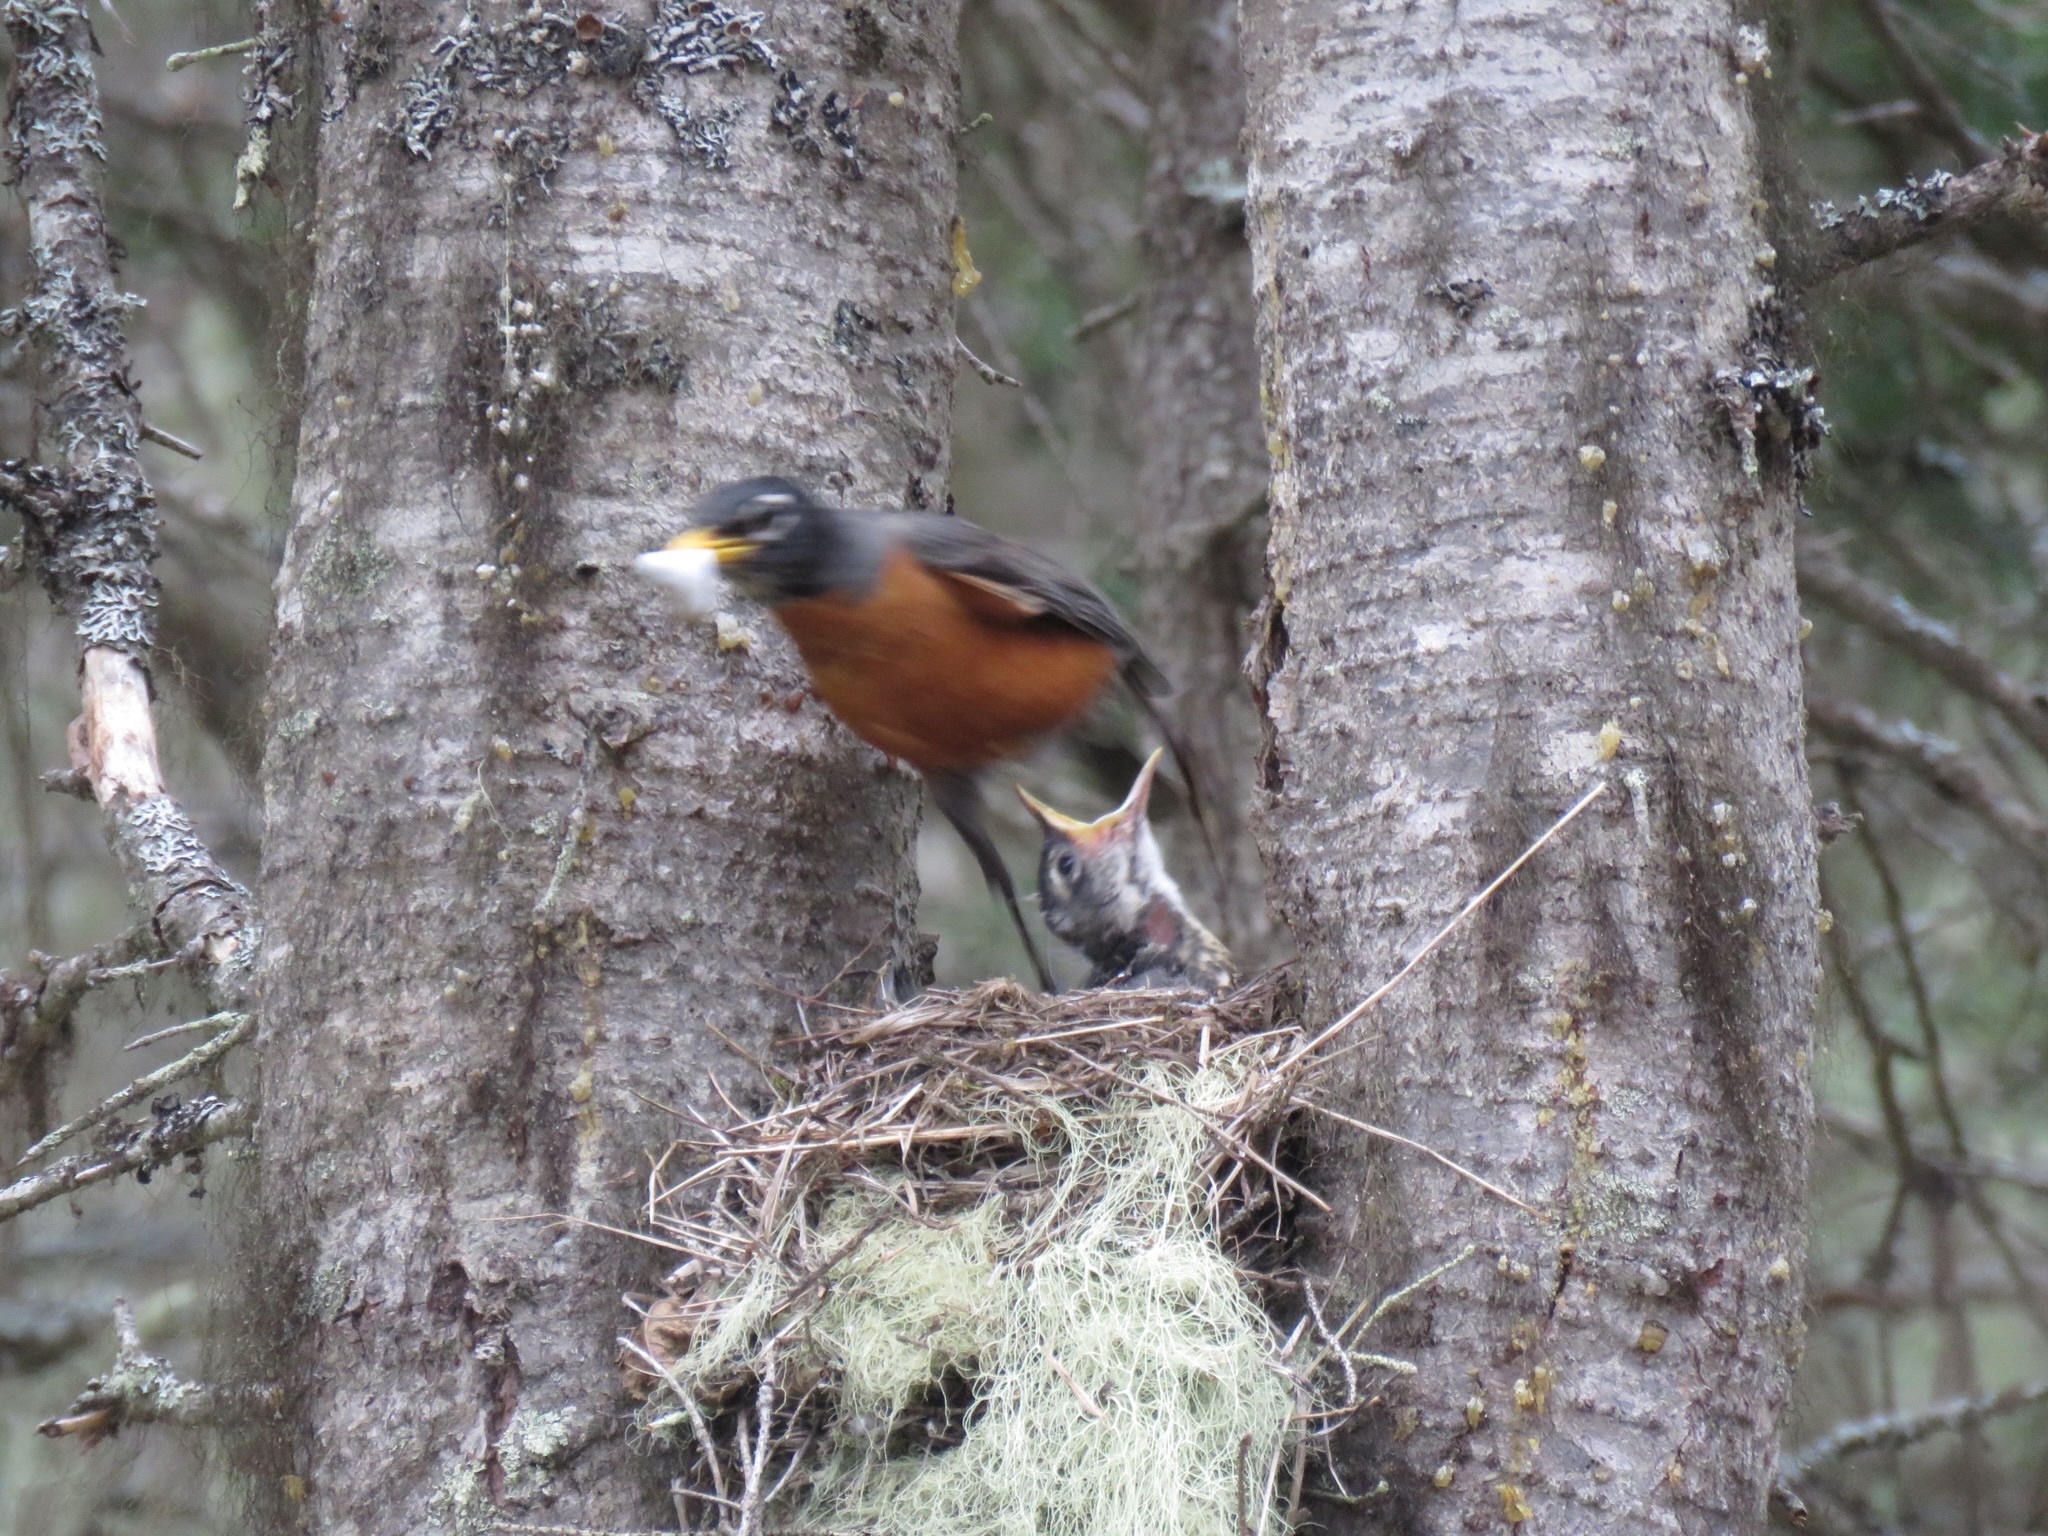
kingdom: Animalia
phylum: Chordata
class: Aves
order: Passeriformes
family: Turdidae
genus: Turdus
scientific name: Turdus migratorius
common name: American robin
